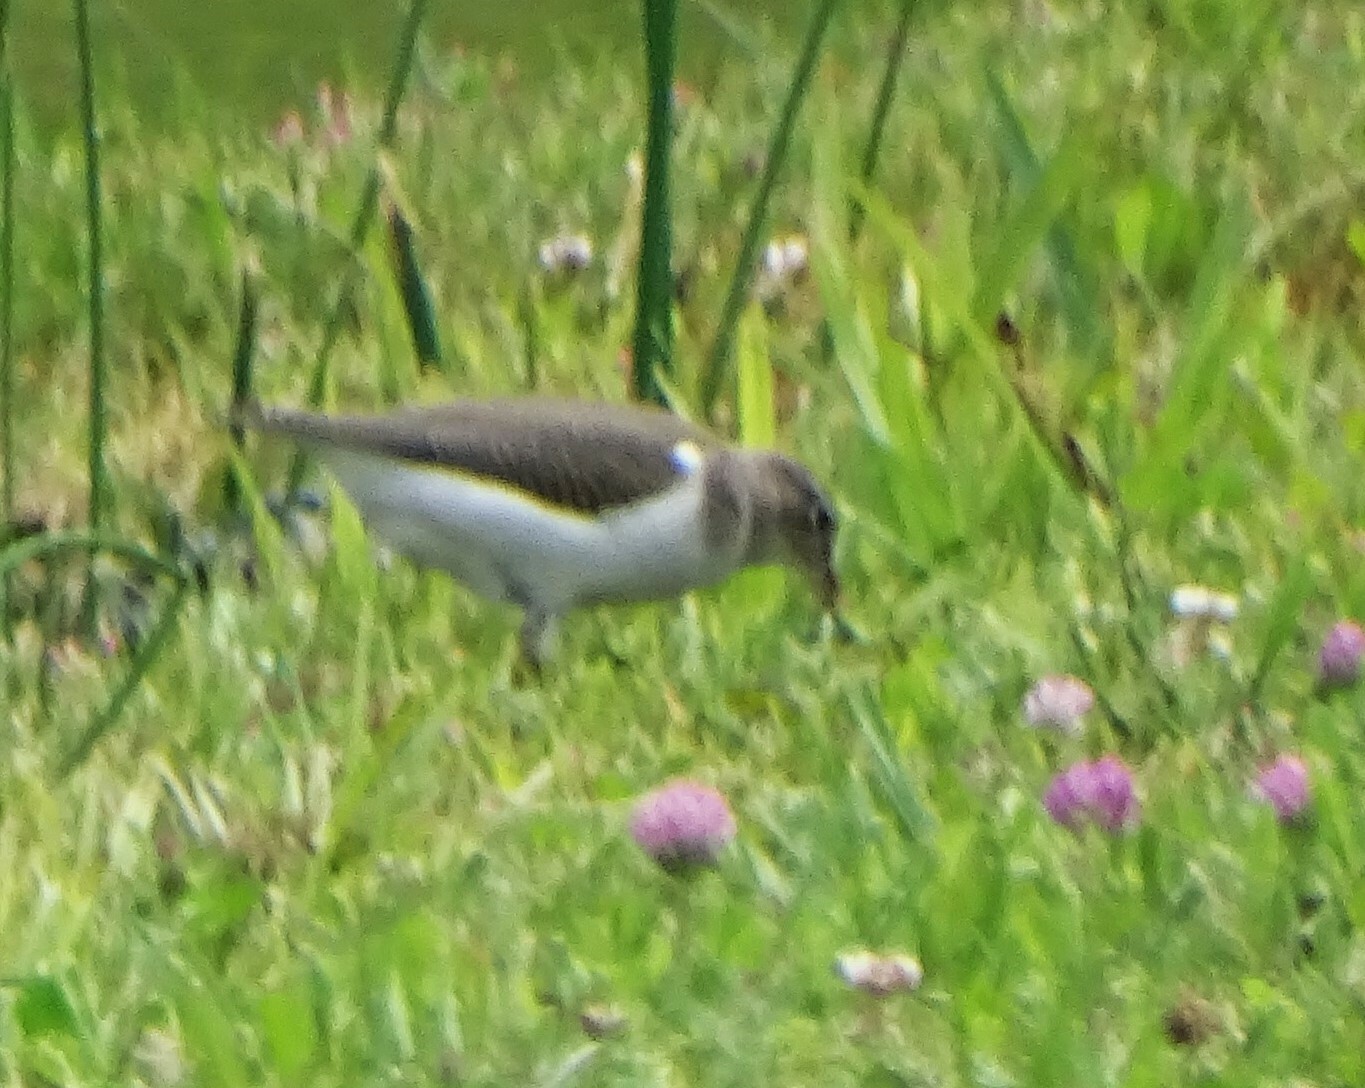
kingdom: Animalia
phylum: Chordata
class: Aves
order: Charadriiformes
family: Scolopacidae
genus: Actitis
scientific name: Actitis macularius
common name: Spotted sandpiper
